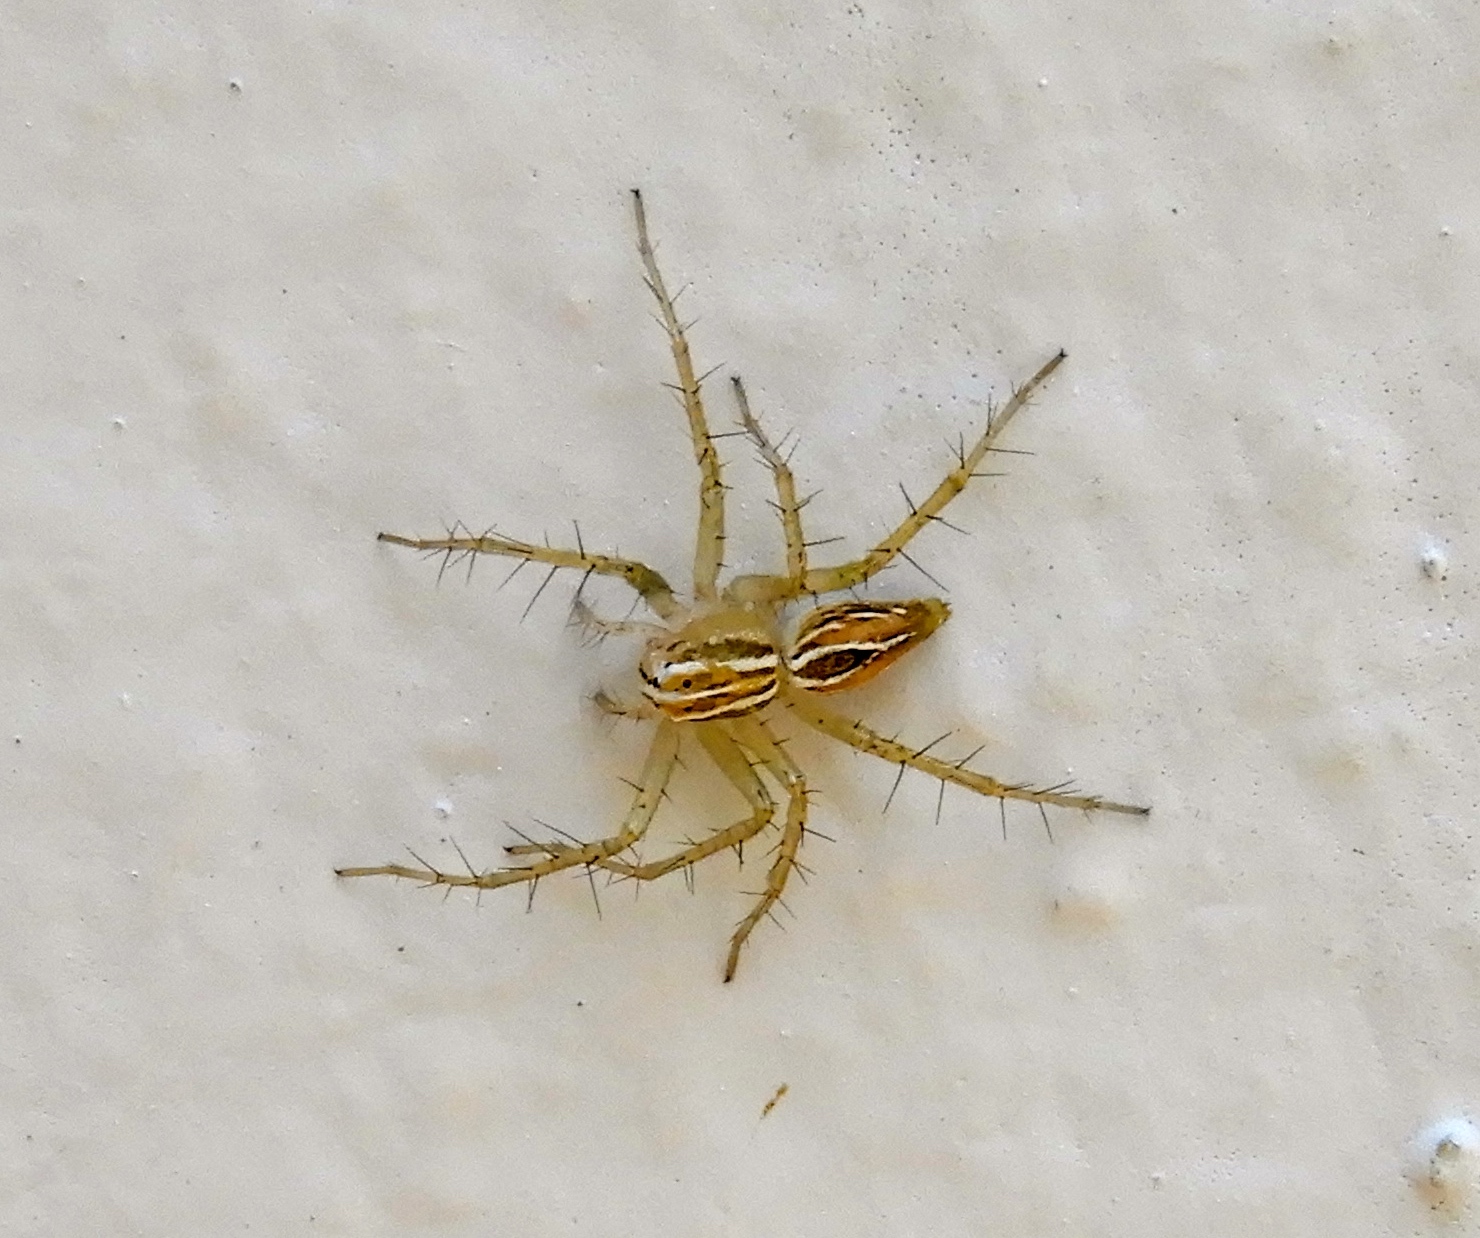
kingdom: Animalia
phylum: Arthropoda
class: Arachnida
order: Araneae
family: Oxyopidae
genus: Oxyopes
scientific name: Oxyopes
